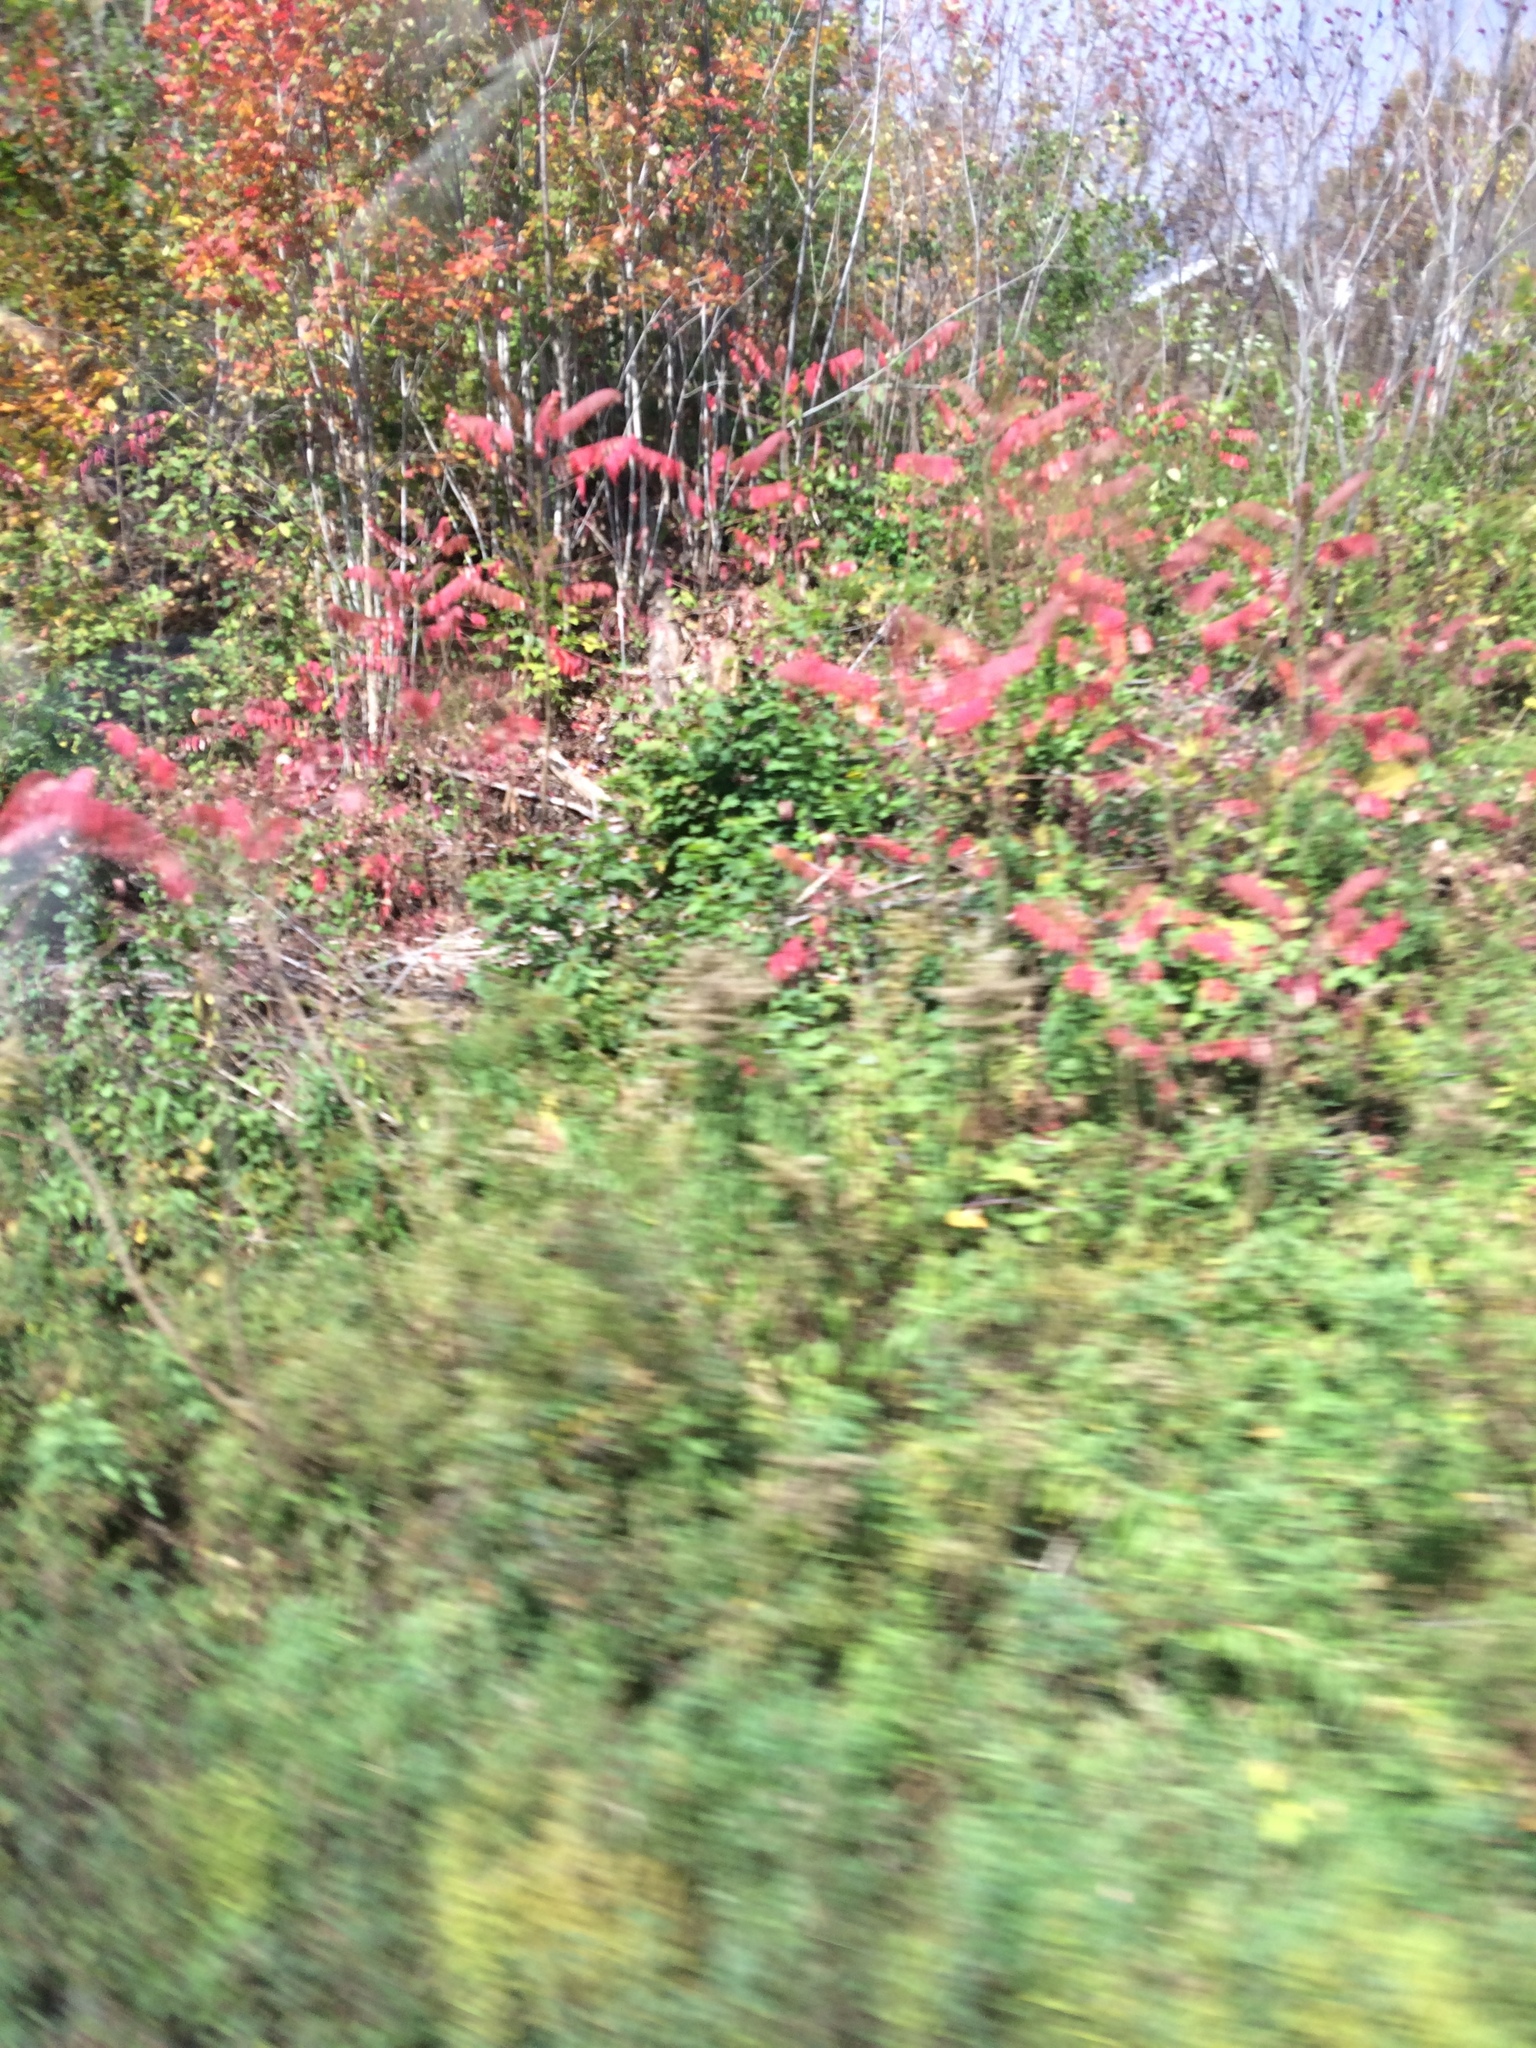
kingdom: Plantae
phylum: Tracheophyta
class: Magnoliopsida
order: Sapindales
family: Anacardiaceae
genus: Rhus
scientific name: Rhus typhina
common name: Staghorn sumac
